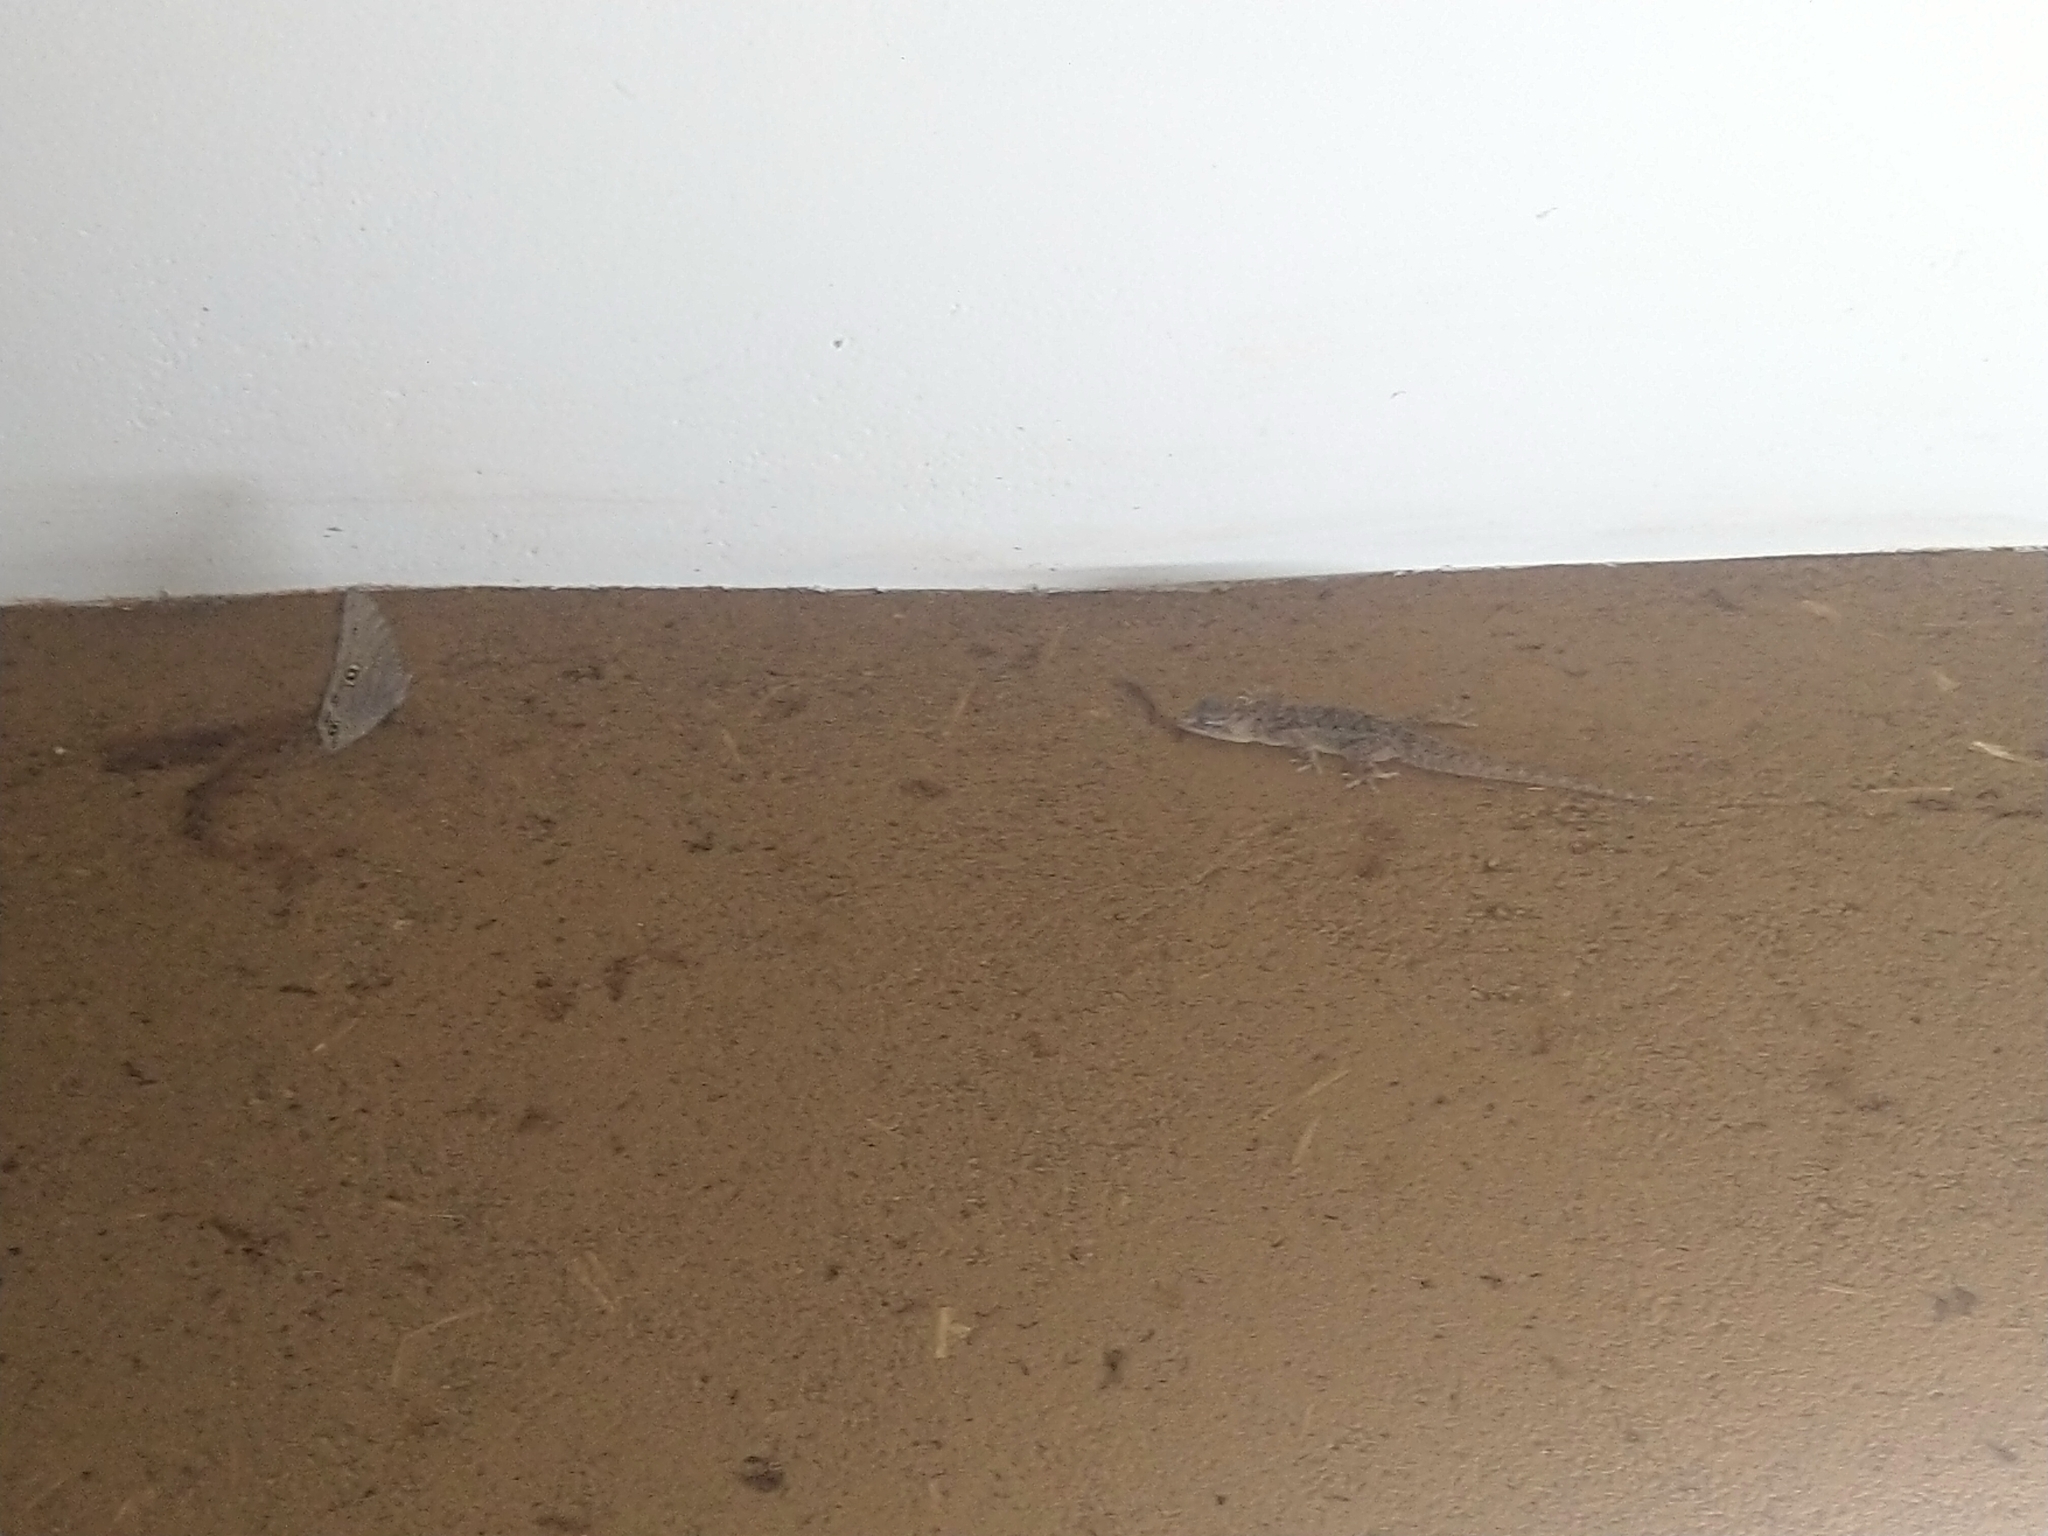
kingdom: Animalia
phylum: Arthropoda
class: Insecta
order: Lepidoptera
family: Nymphalidae
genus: Melanitis
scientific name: Melanitis leda
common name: Twilight brown
